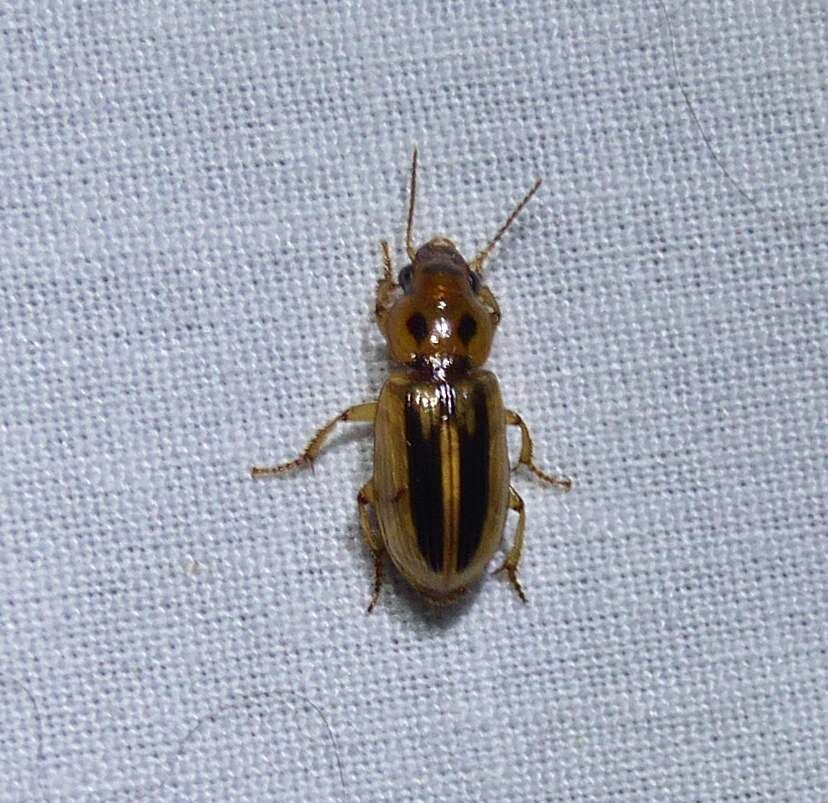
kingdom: Animalia
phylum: Arthropoda
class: Insecta
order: Coleoptera
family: Carabidae
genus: Stenolophus
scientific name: Stenolophus lineola
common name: Lined stenolophus
